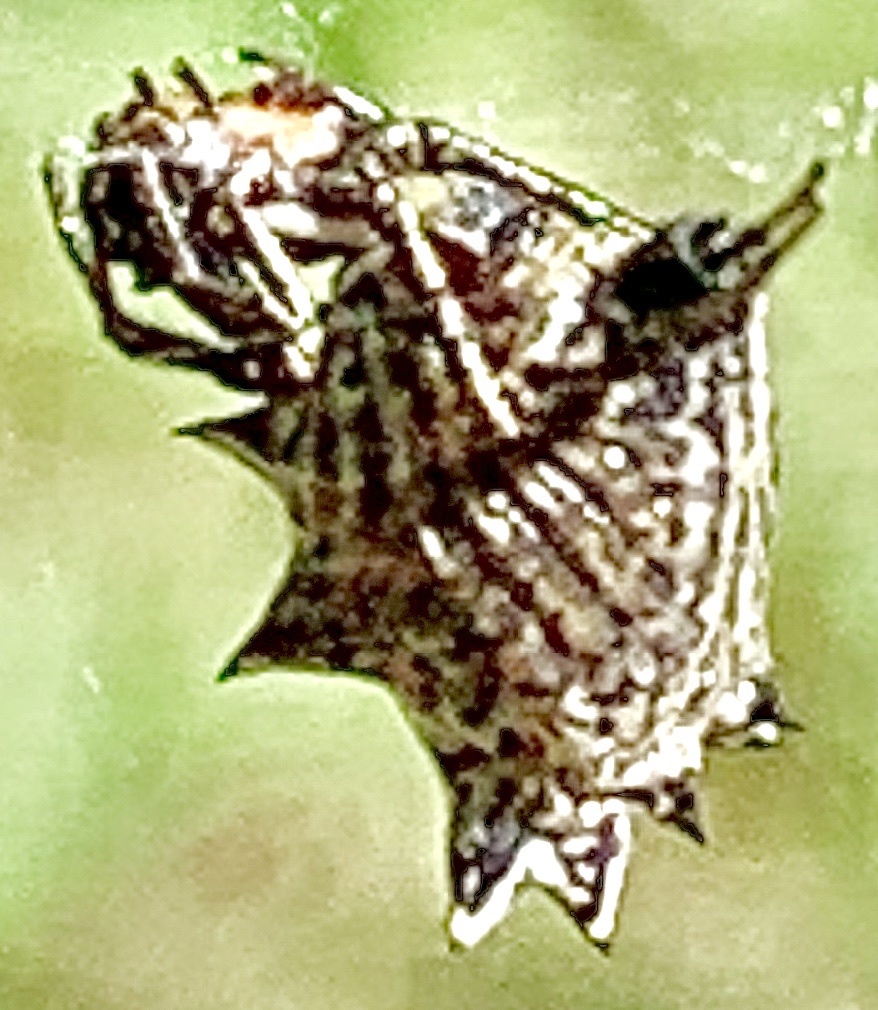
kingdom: Animalia
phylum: Arthropoda
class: Arachnida
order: Araneae
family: Araneidae
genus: Micrathena
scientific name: Micrathena gracilis
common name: Orb weavers
